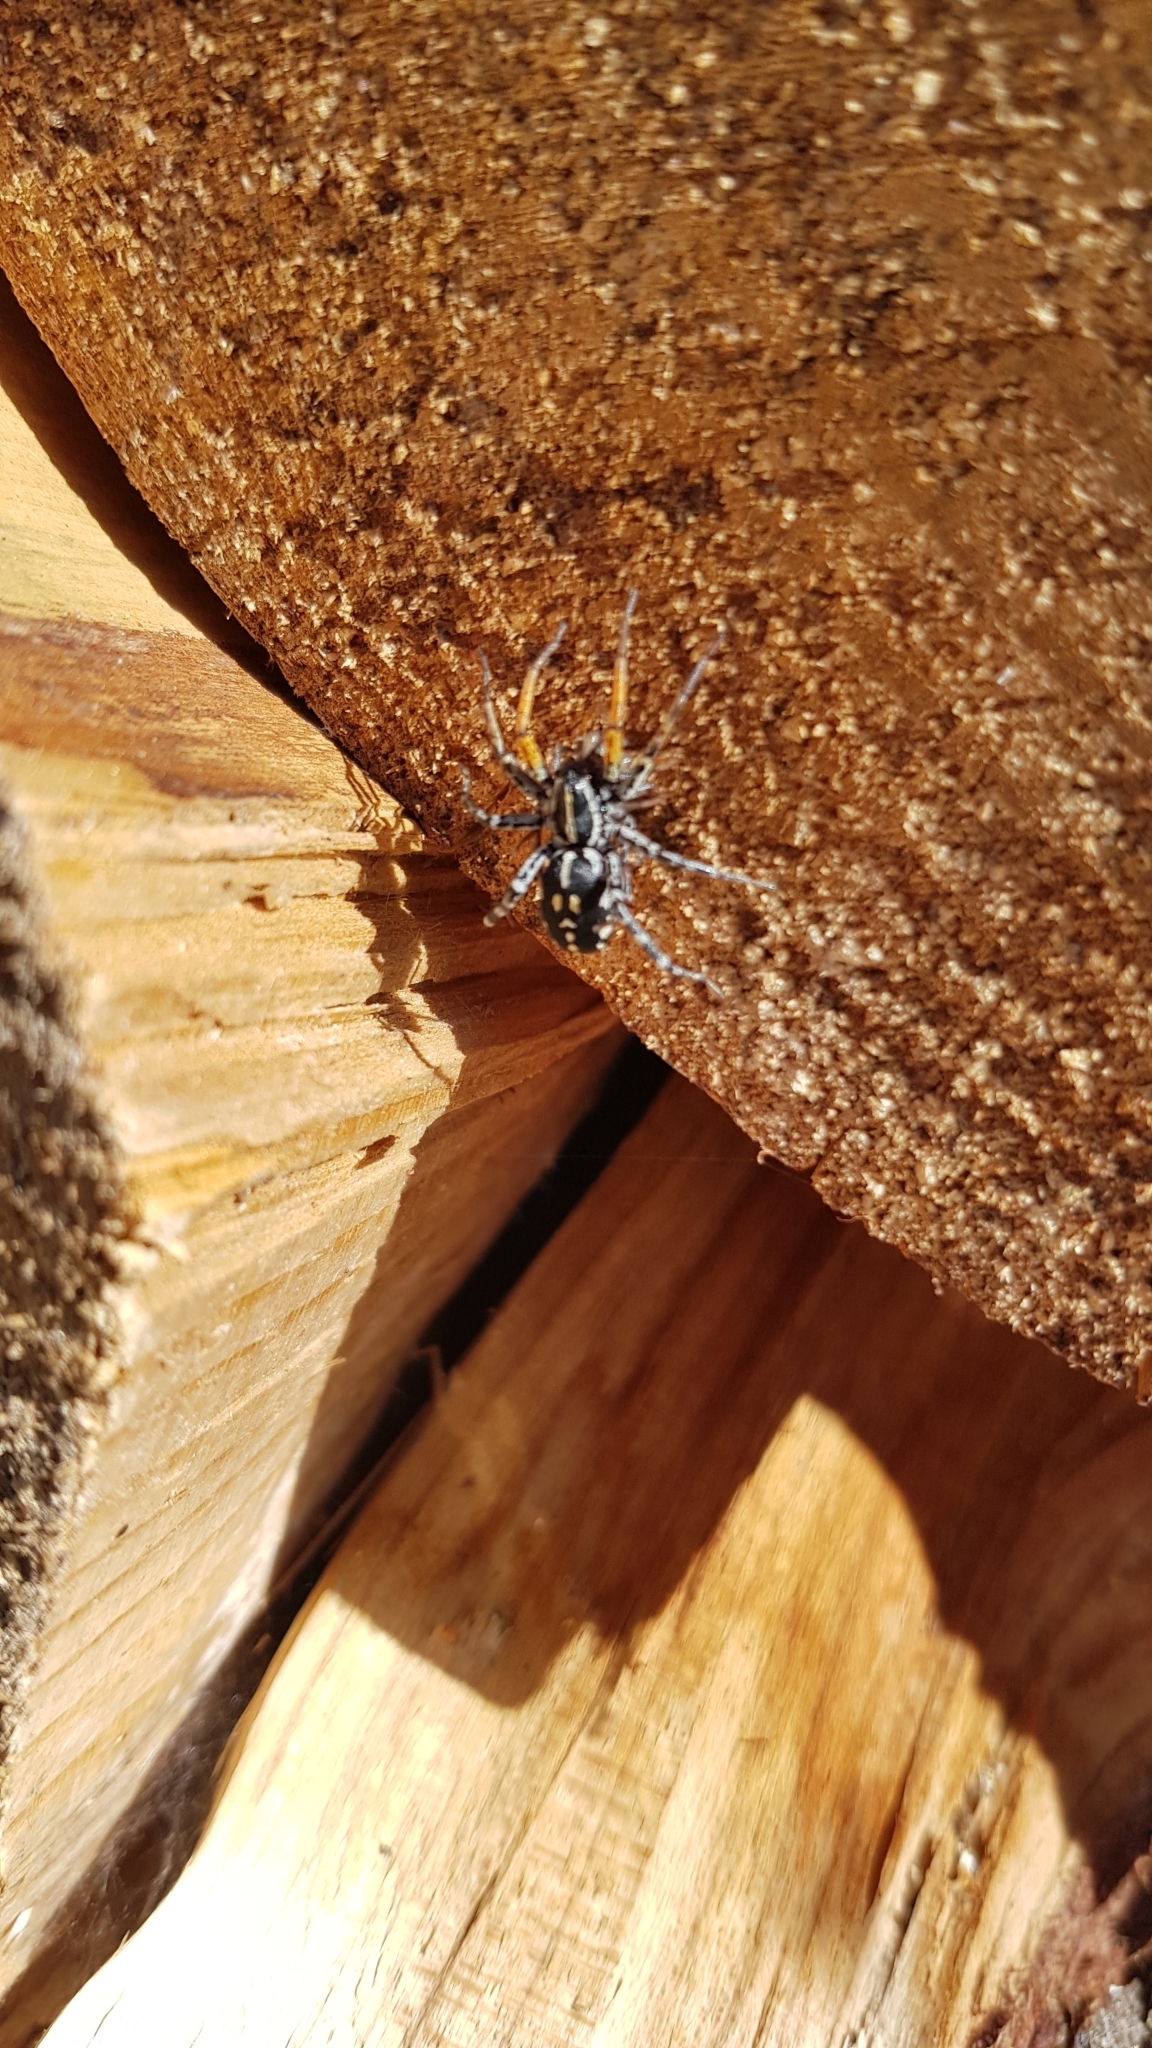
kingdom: Animalia
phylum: Arthropoda
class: Arachnida
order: Araneae
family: Corinnidae
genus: Nyssus
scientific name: Nyssus coloripes
